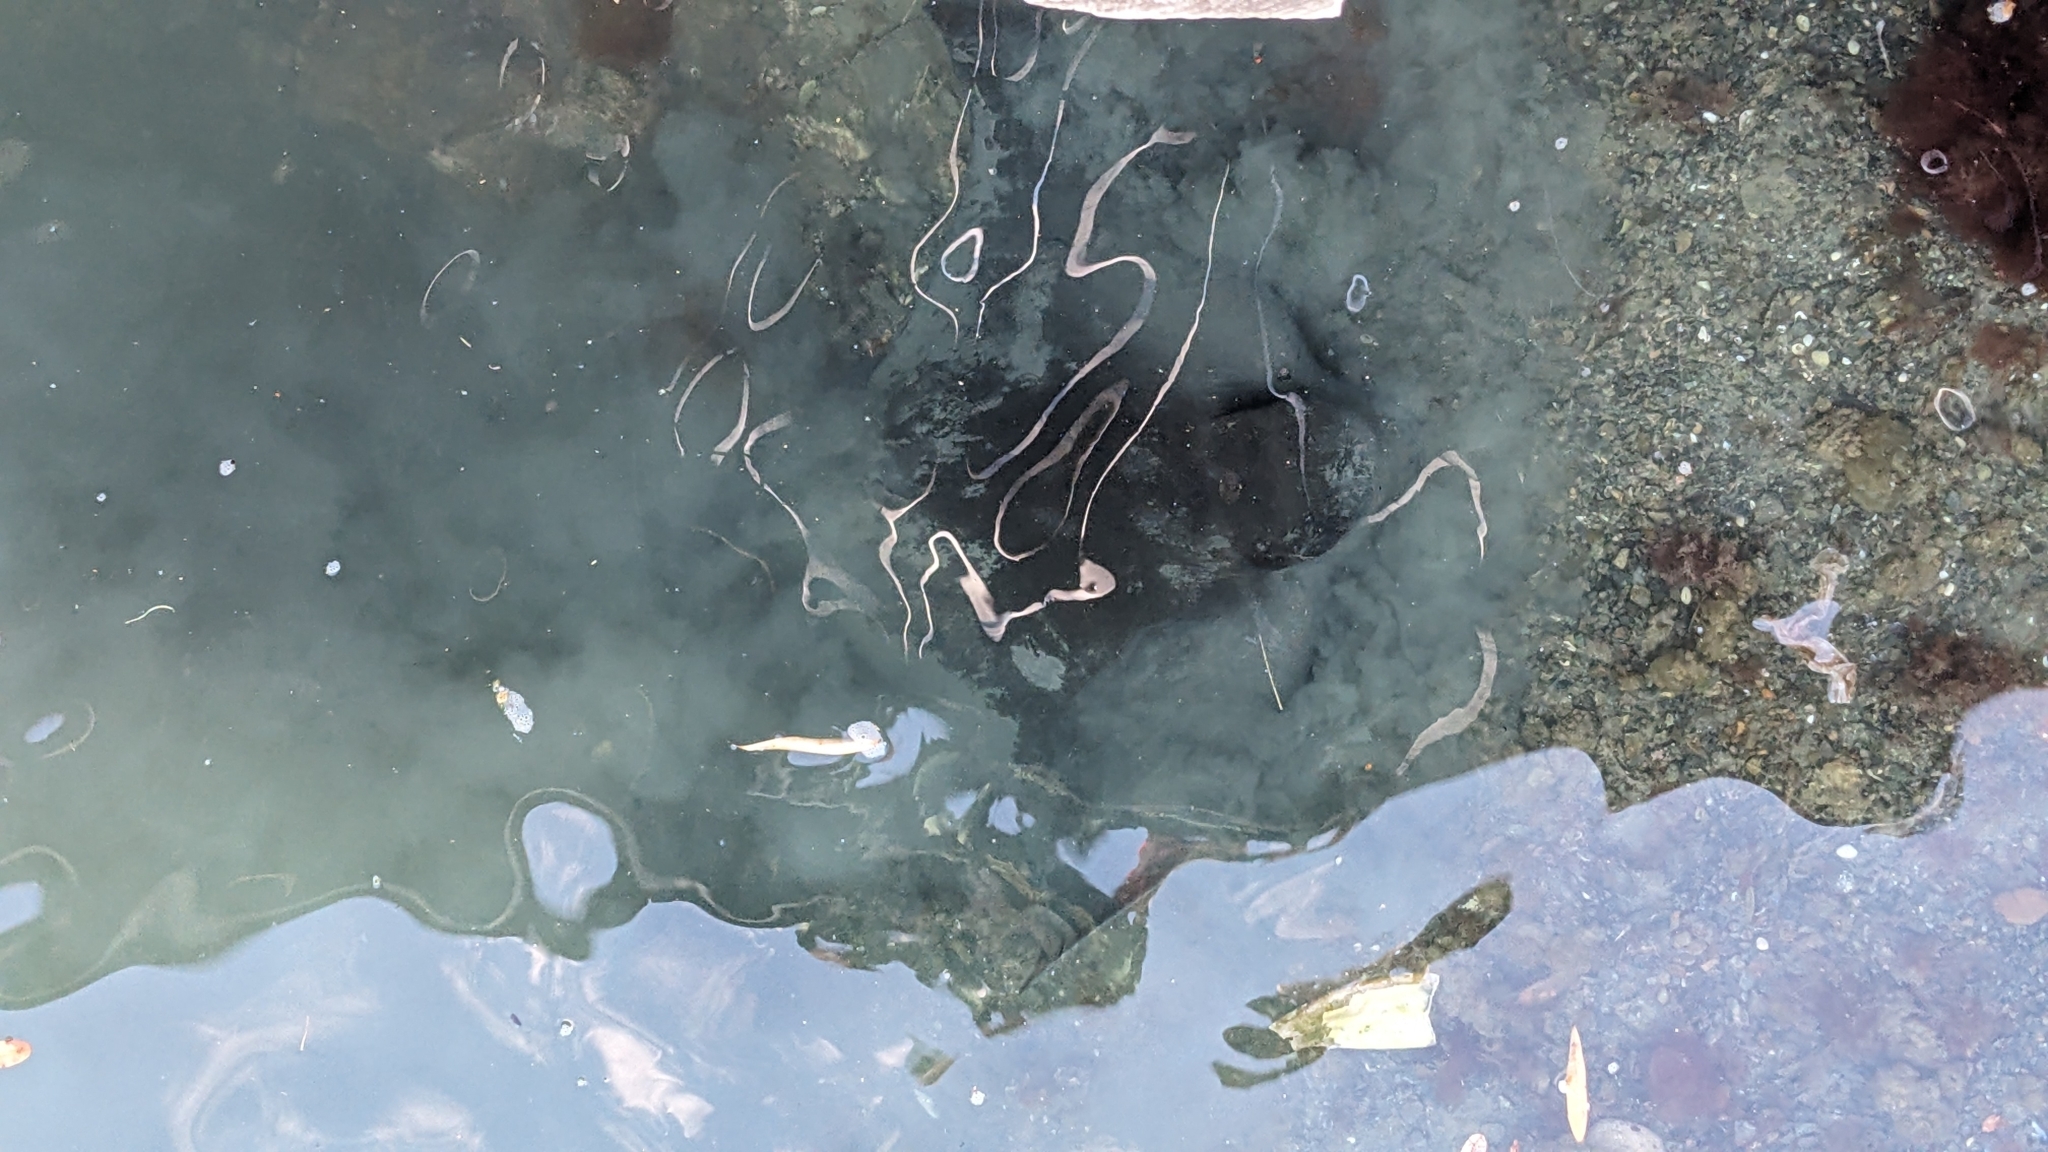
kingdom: Animalia
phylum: Chordata
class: Elasmobranchii
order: Myliobatiformes
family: Myliobatidae
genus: Myliobatis
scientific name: Myliobatis tenuicaudatus
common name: Eagle ray
